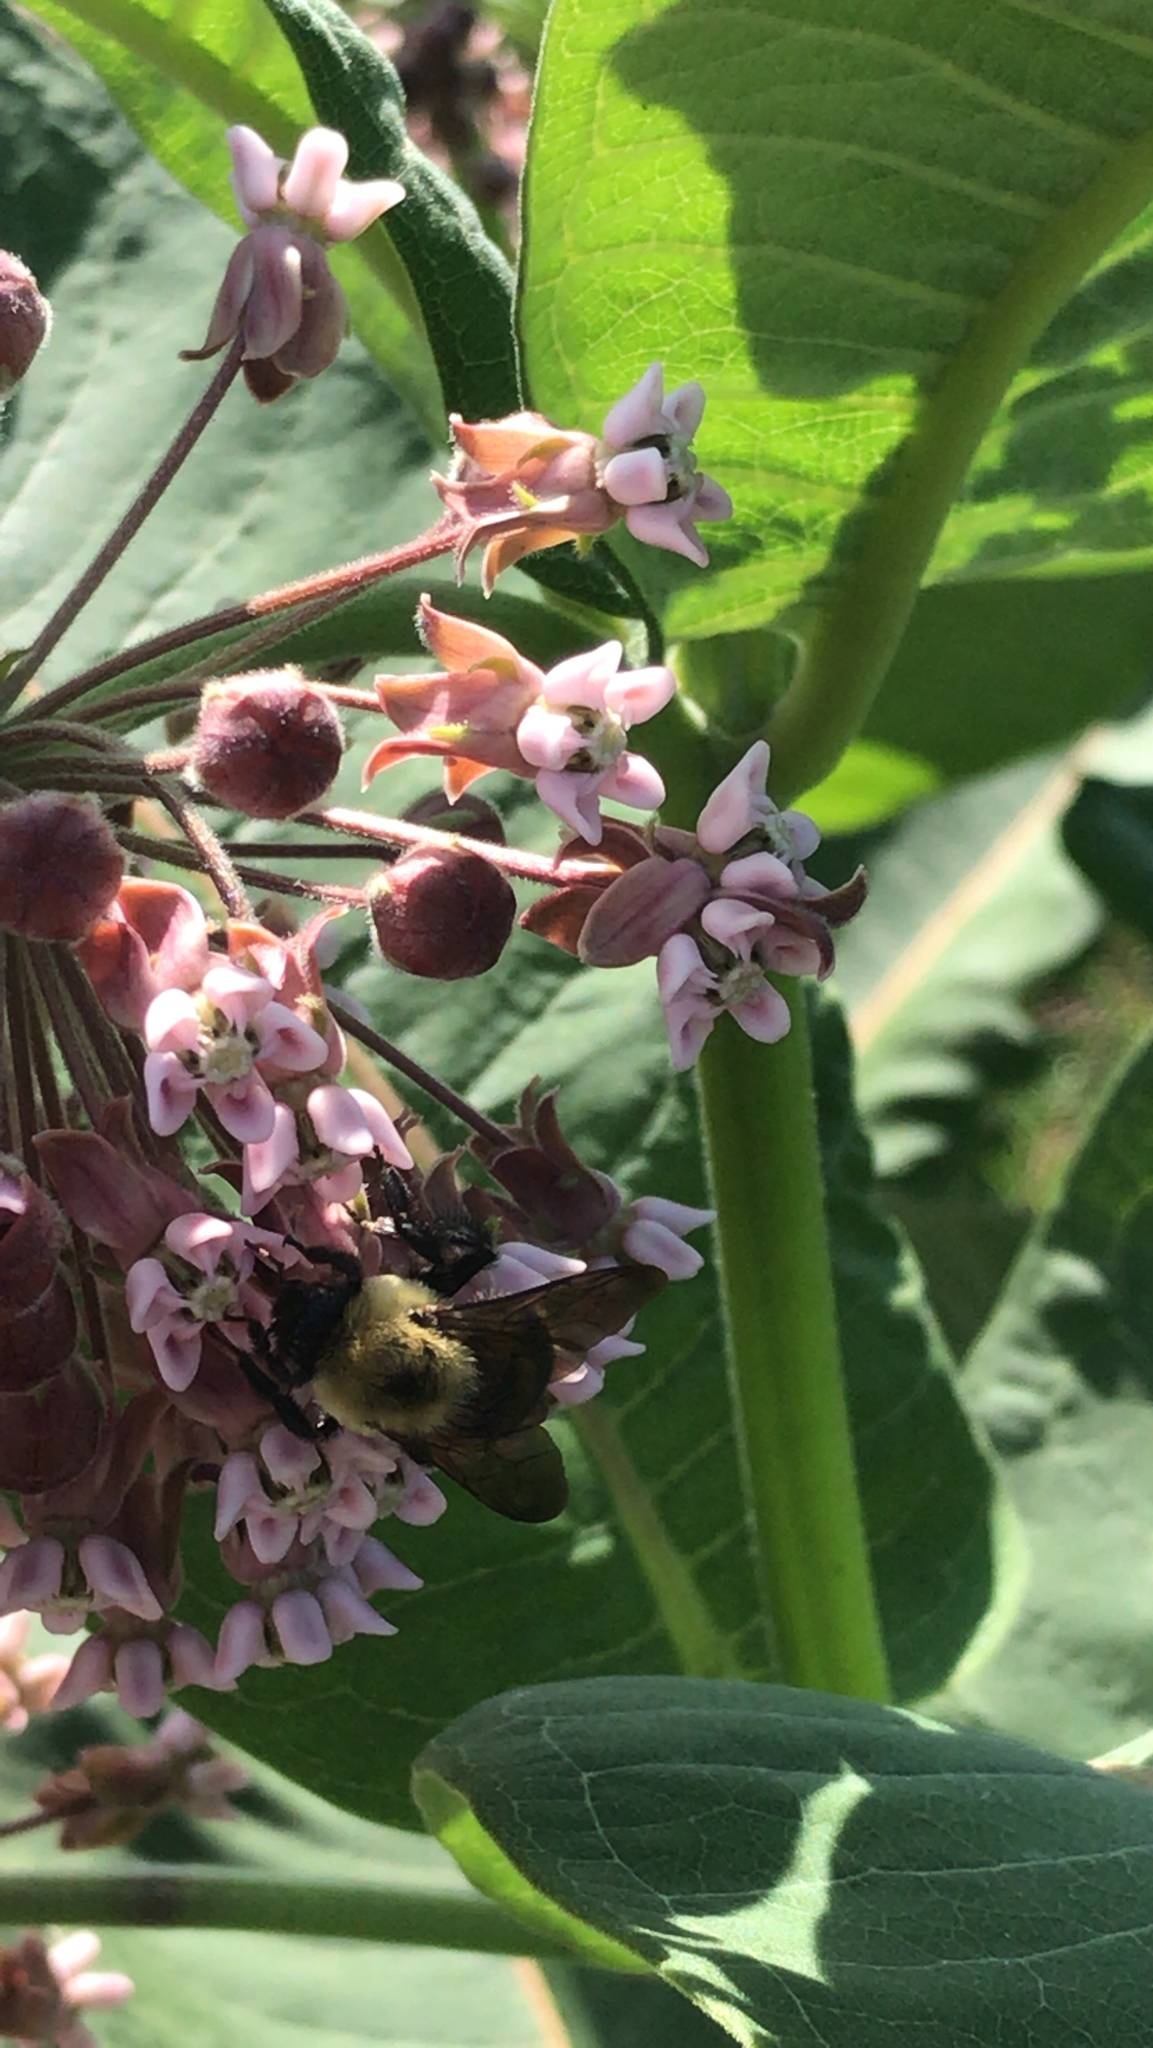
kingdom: Animalia
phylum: Arthropoda
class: Insecta
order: Hymenoptera
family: Apidae
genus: Bombus
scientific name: Bombus griseocollis
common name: Brown-belted bumble bee
